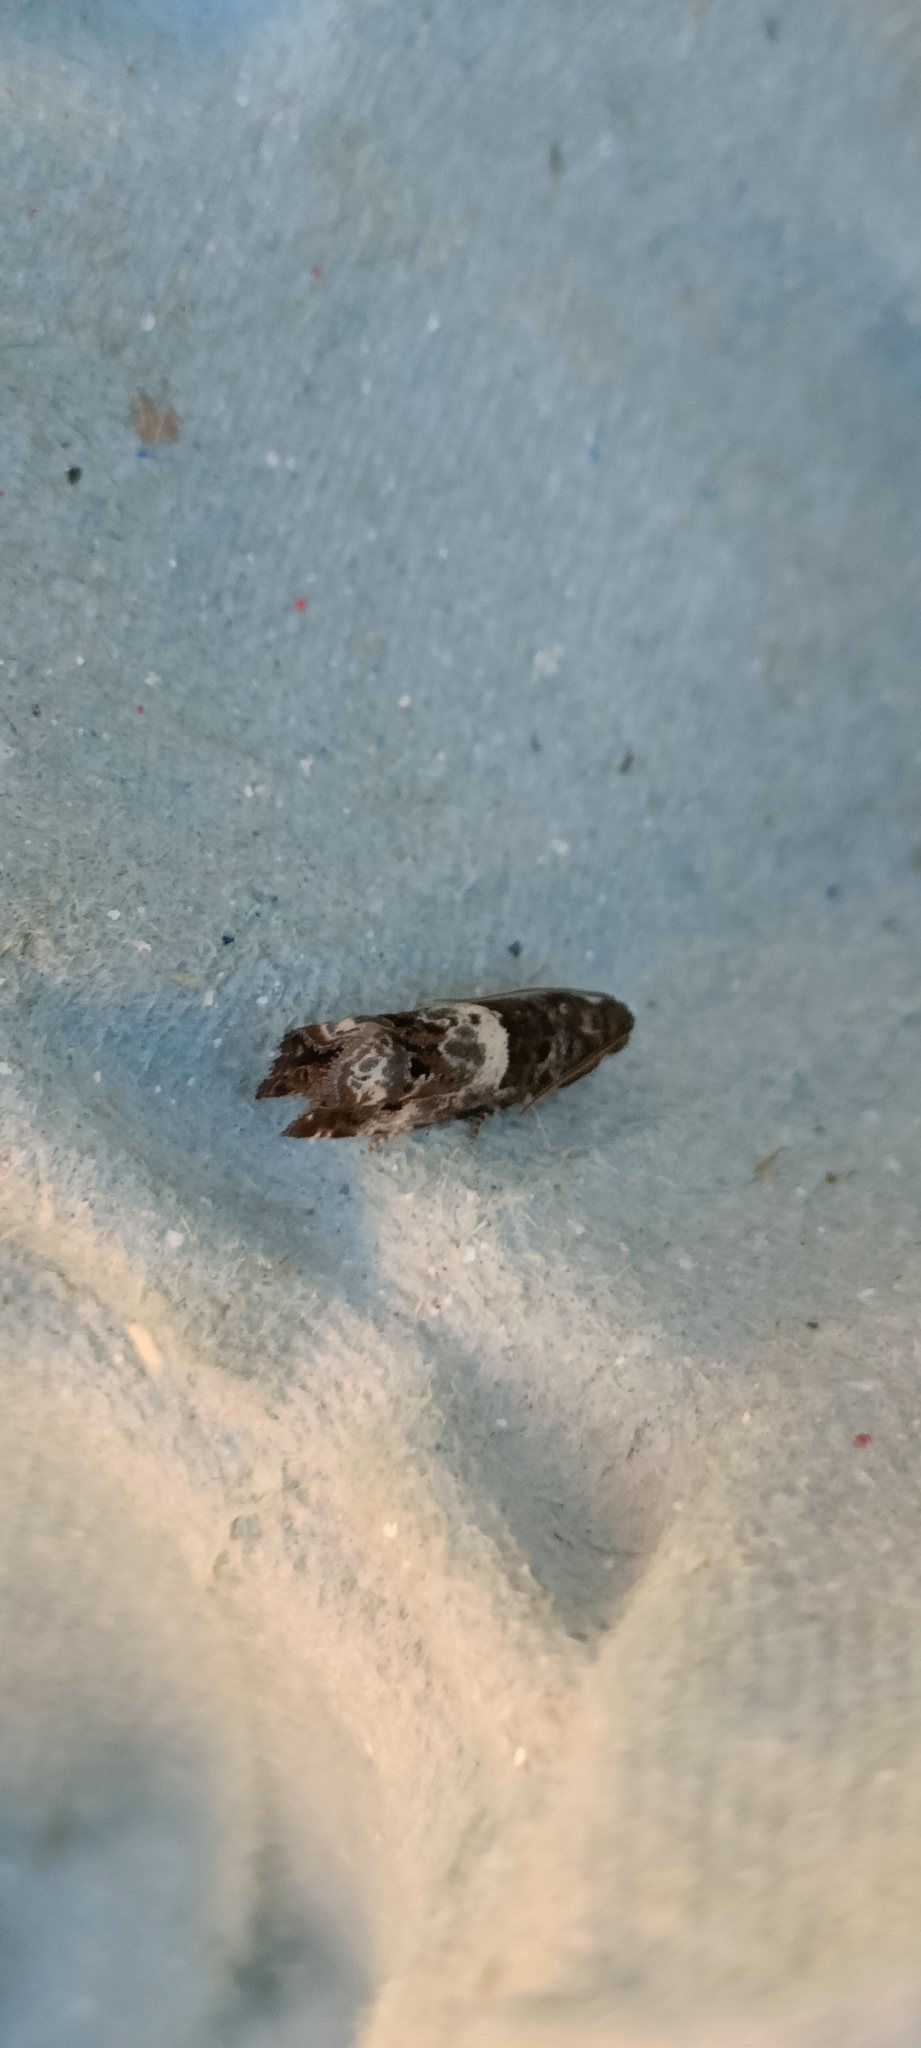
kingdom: Animalia
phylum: Arthropoda
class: Insecta
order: Lepidoptera
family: Tortricidae
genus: Notocelia
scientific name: Notocelia trimaculana
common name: Triple-blotched bell
